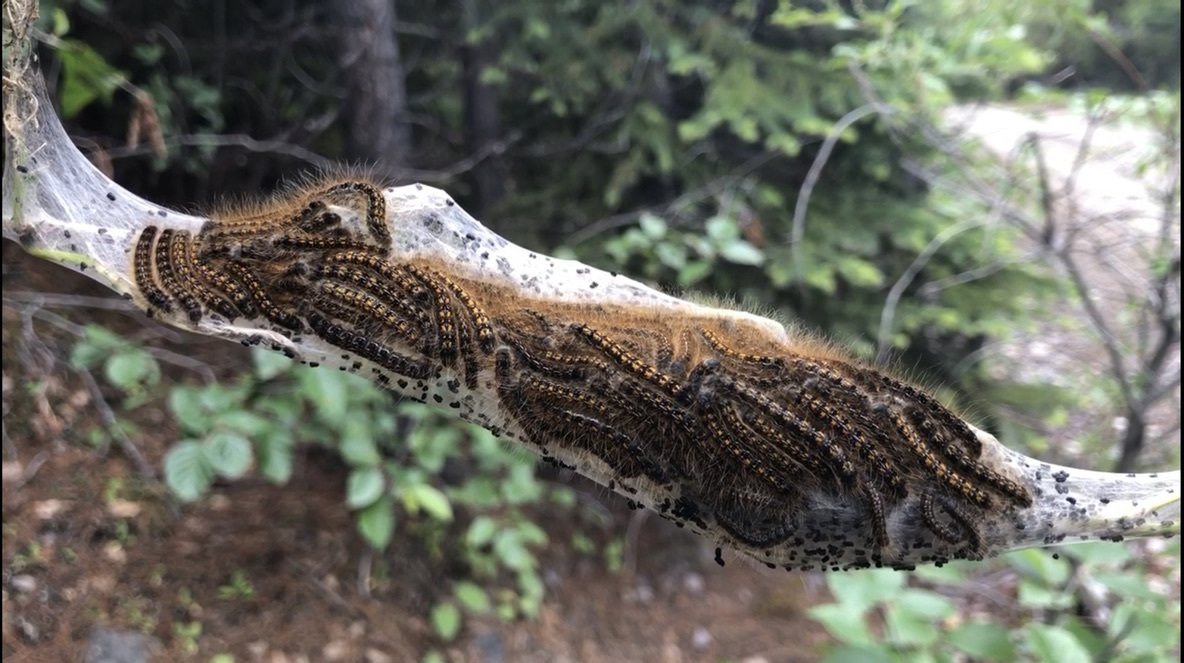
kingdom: Animalia
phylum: Arthropoda
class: Insecta
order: Lepidoptera
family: Lasiocampidae
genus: Malacosoma
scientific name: Malacosoma californica
